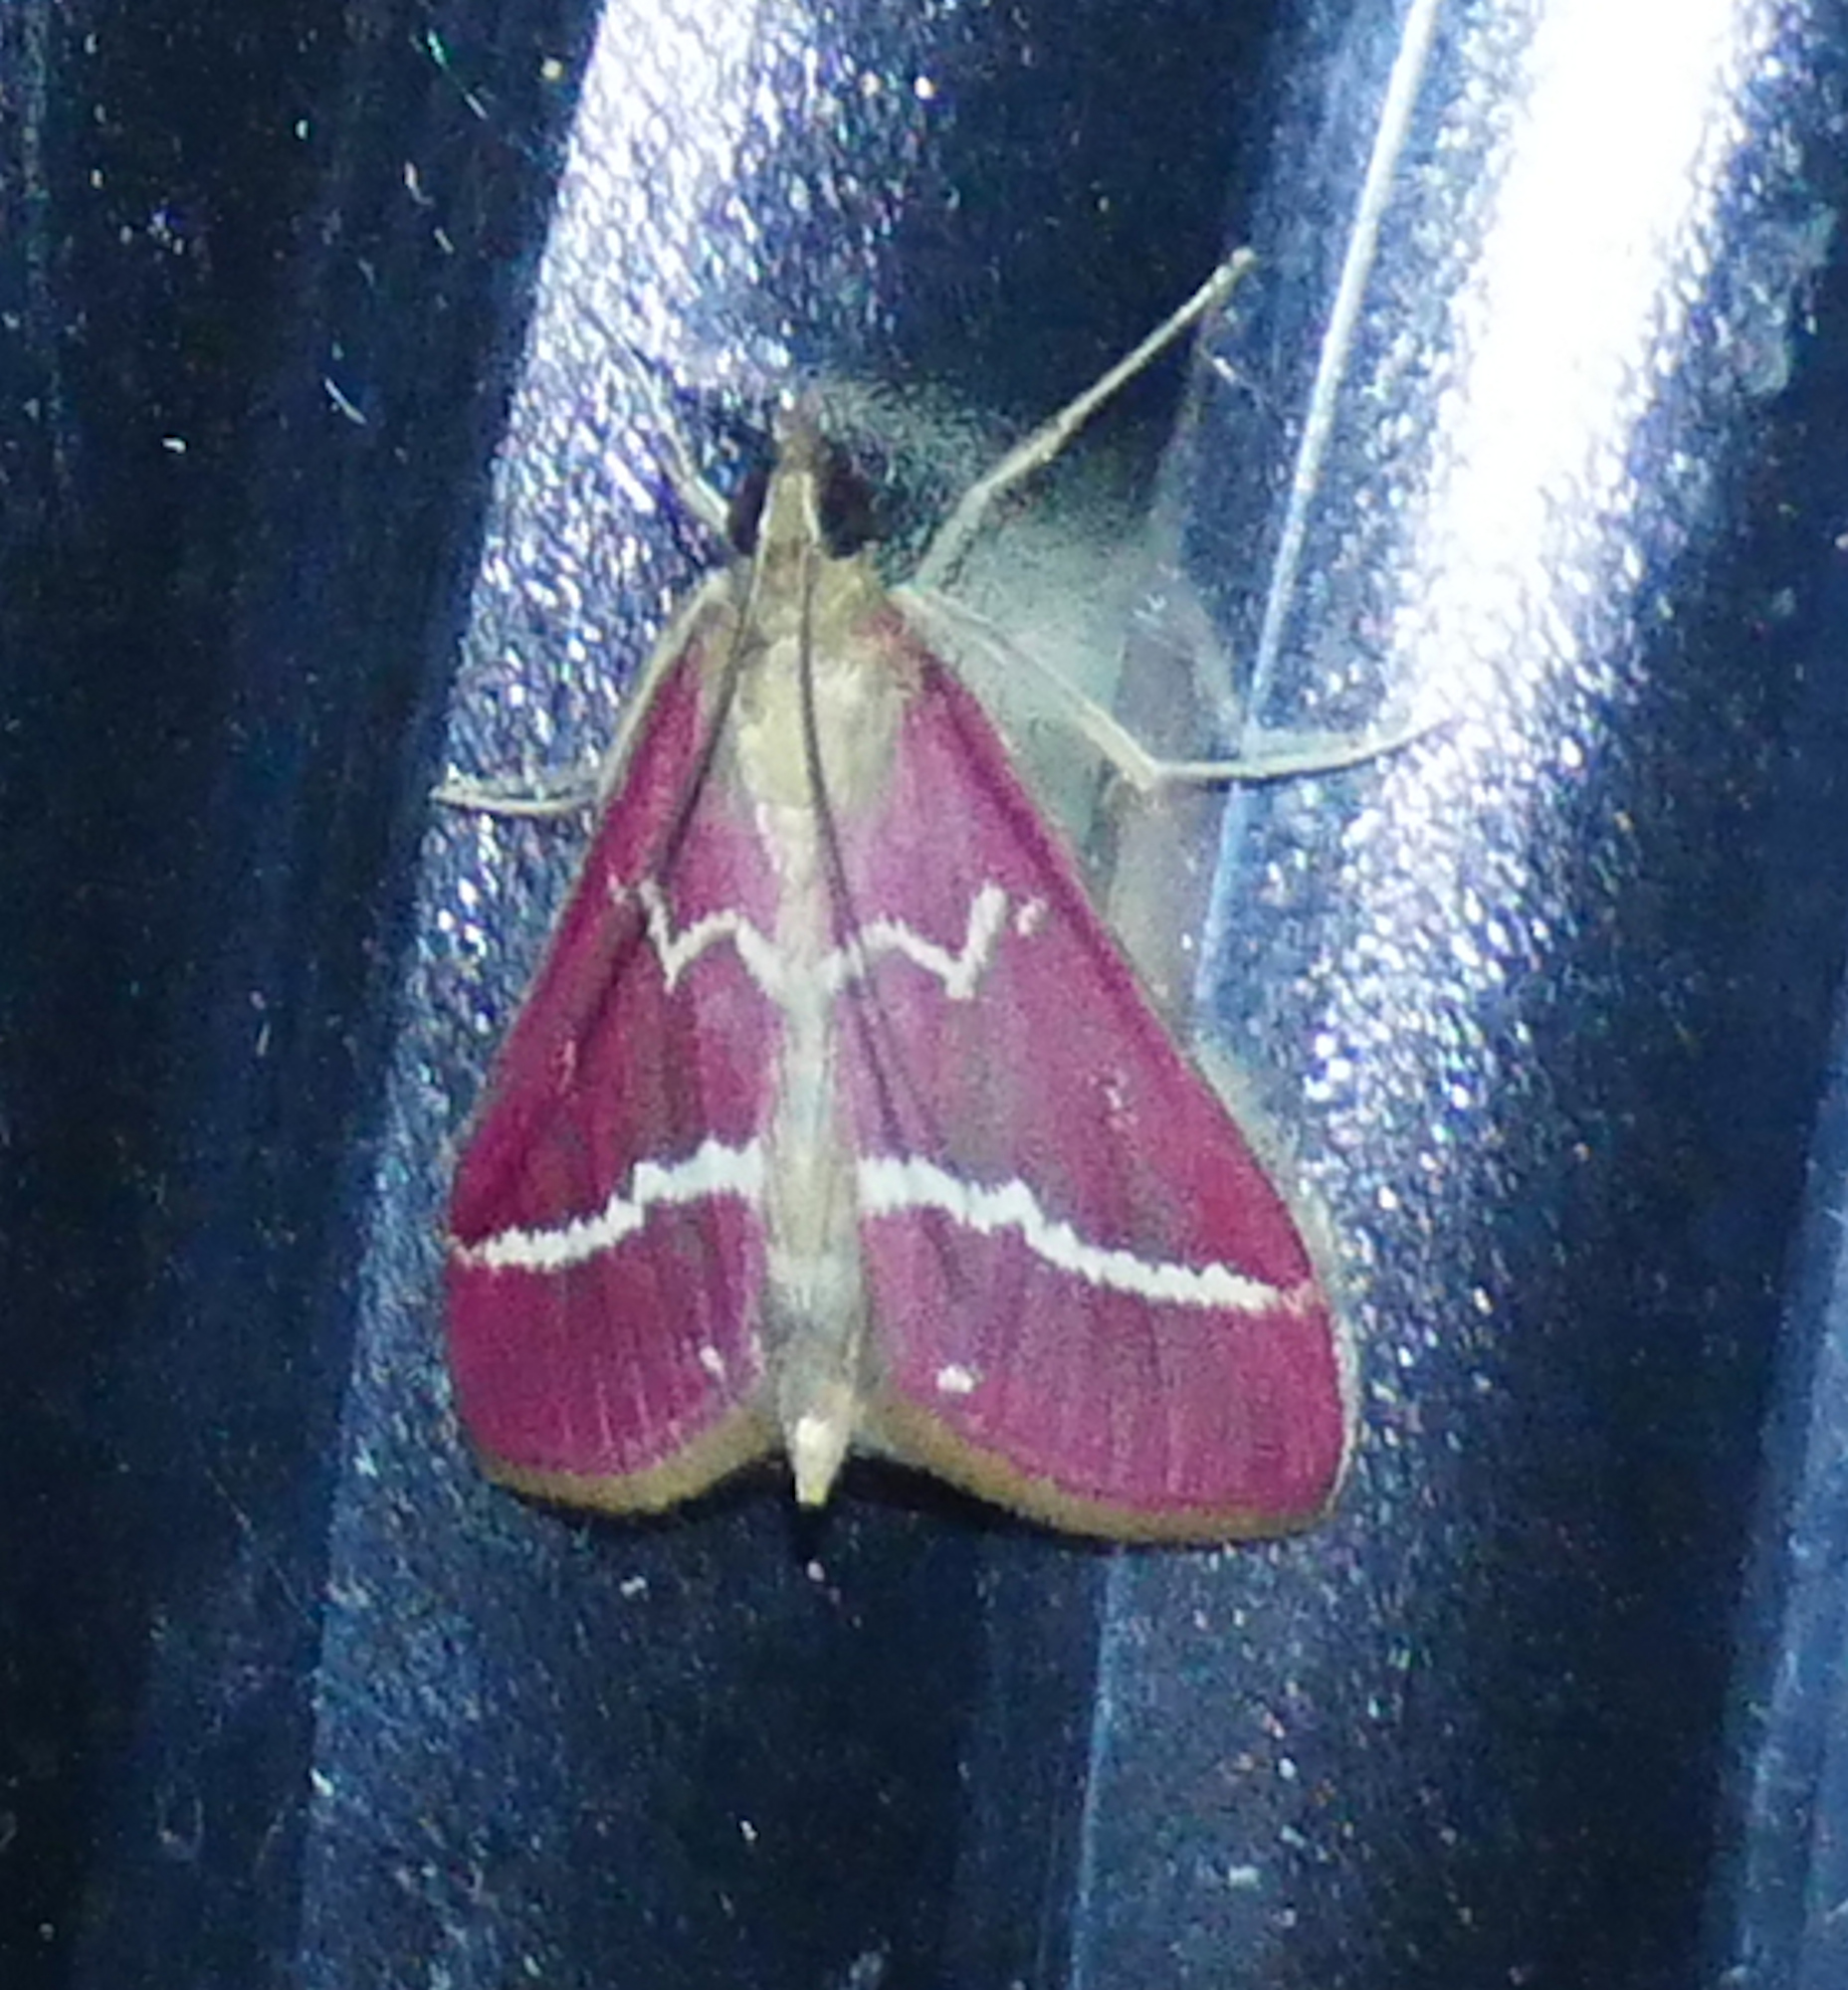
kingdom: Animalia
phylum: Arthropoda
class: Insecta
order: Lepidoptera
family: Crambidae
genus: Pyrausta
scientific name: Pyrausta volupialis
